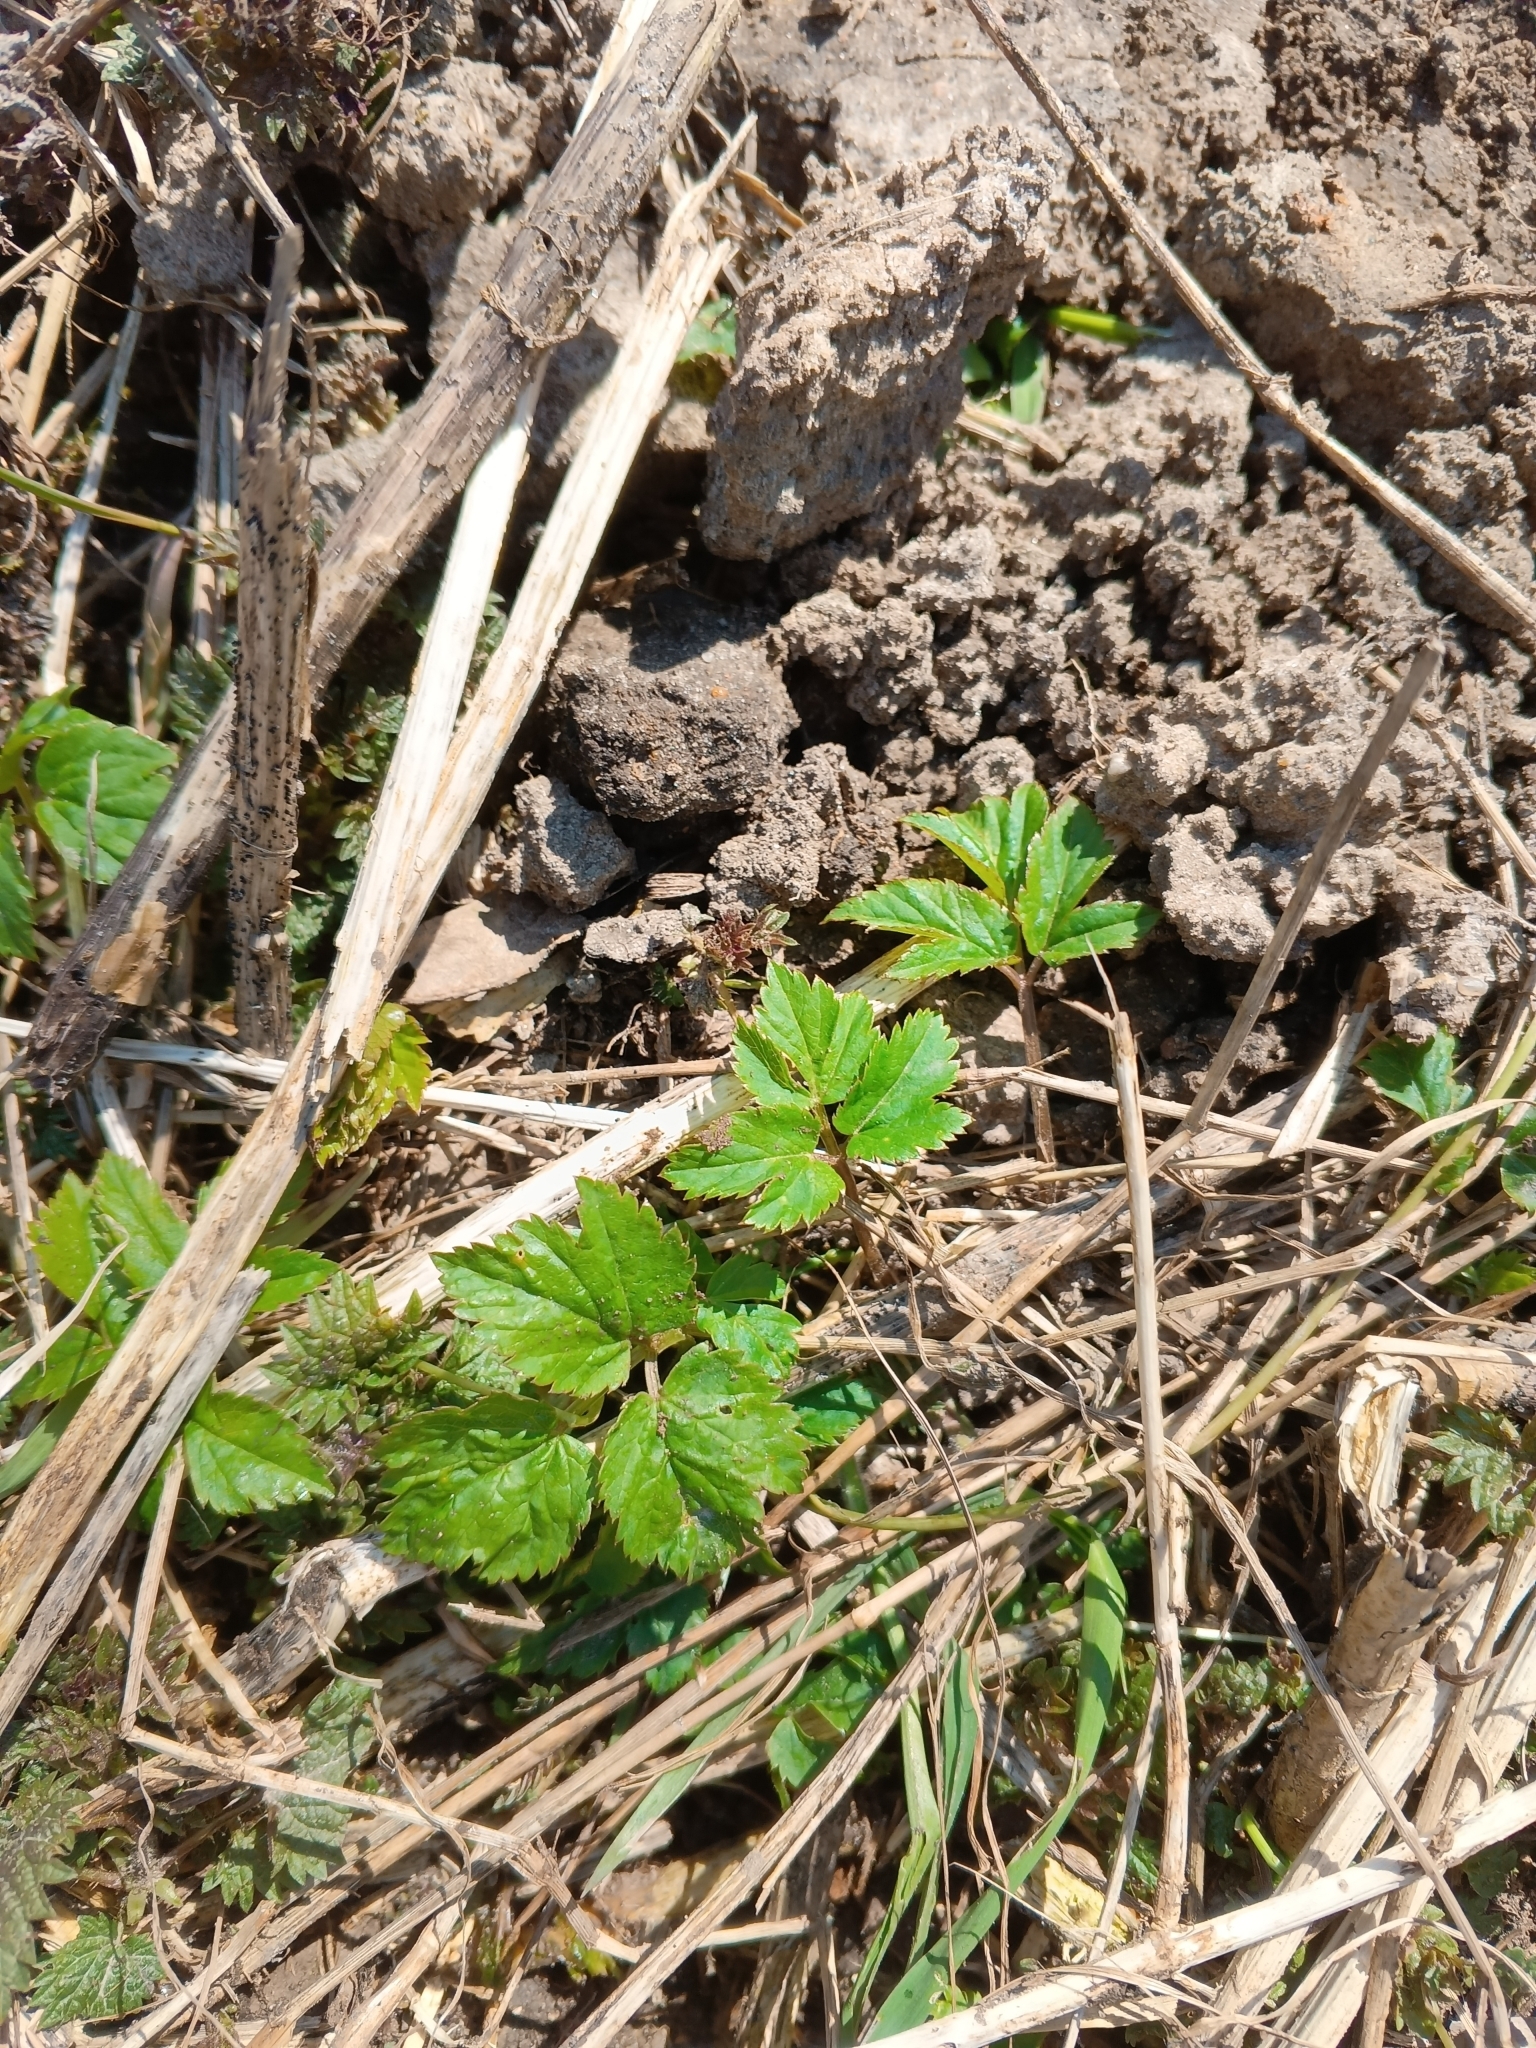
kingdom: Plantae
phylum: Tracheophyta
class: Magnoliopsida
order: Apiales
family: Apiaceae
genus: Aegopodium
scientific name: Aegopodium podagraria
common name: Ground-elder
